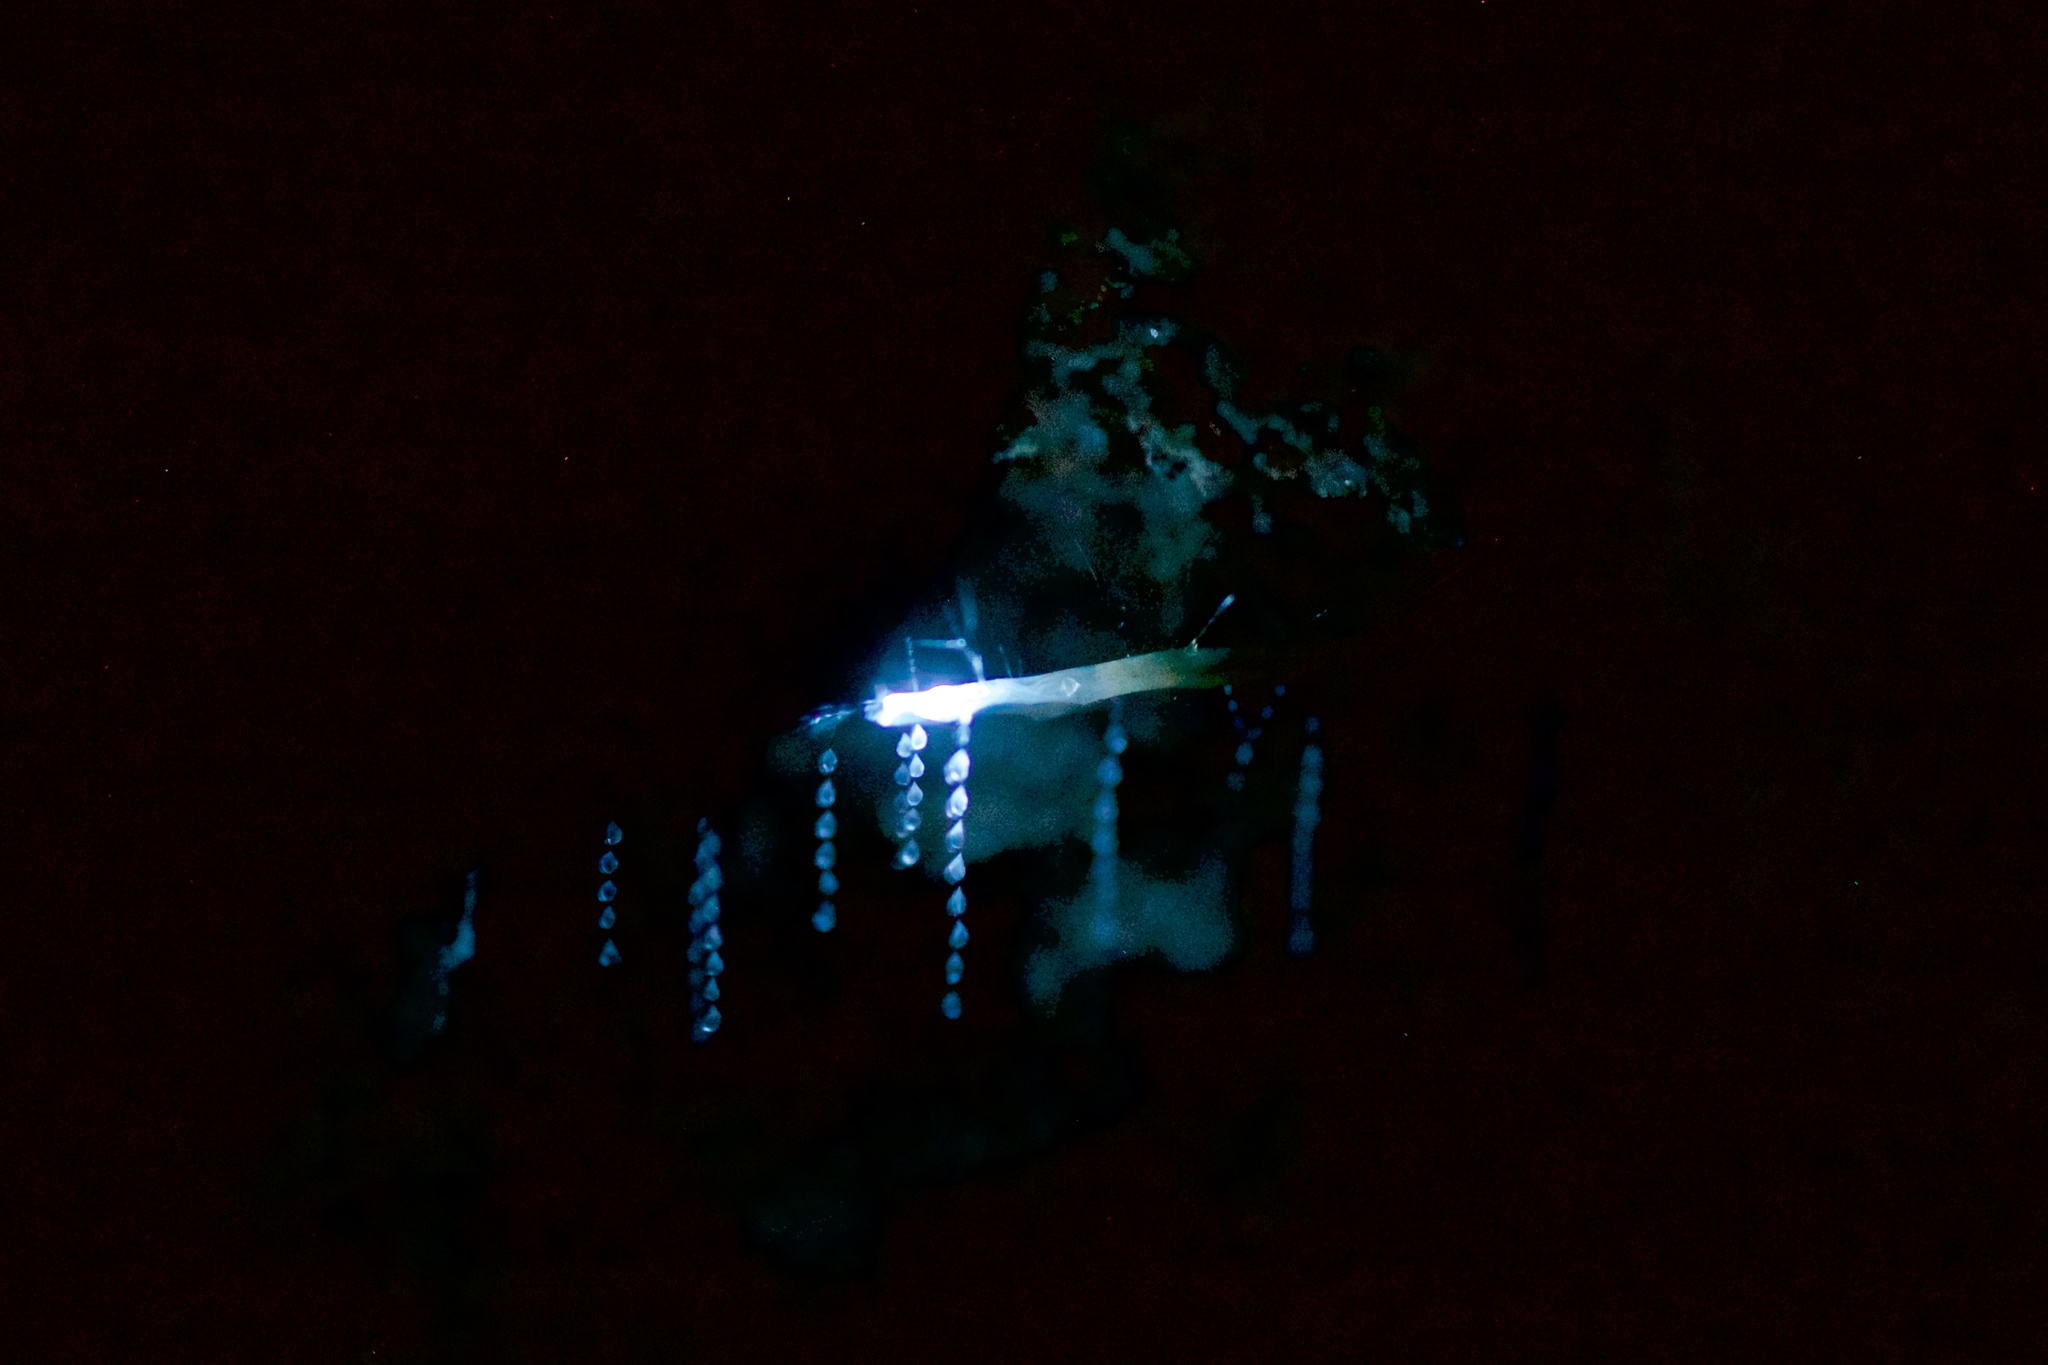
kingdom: Animalia
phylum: Arthropoda
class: Insecta
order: Diptera
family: Keroplatidae
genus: Arachnocampa
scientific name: Arachnocampa luminosa
